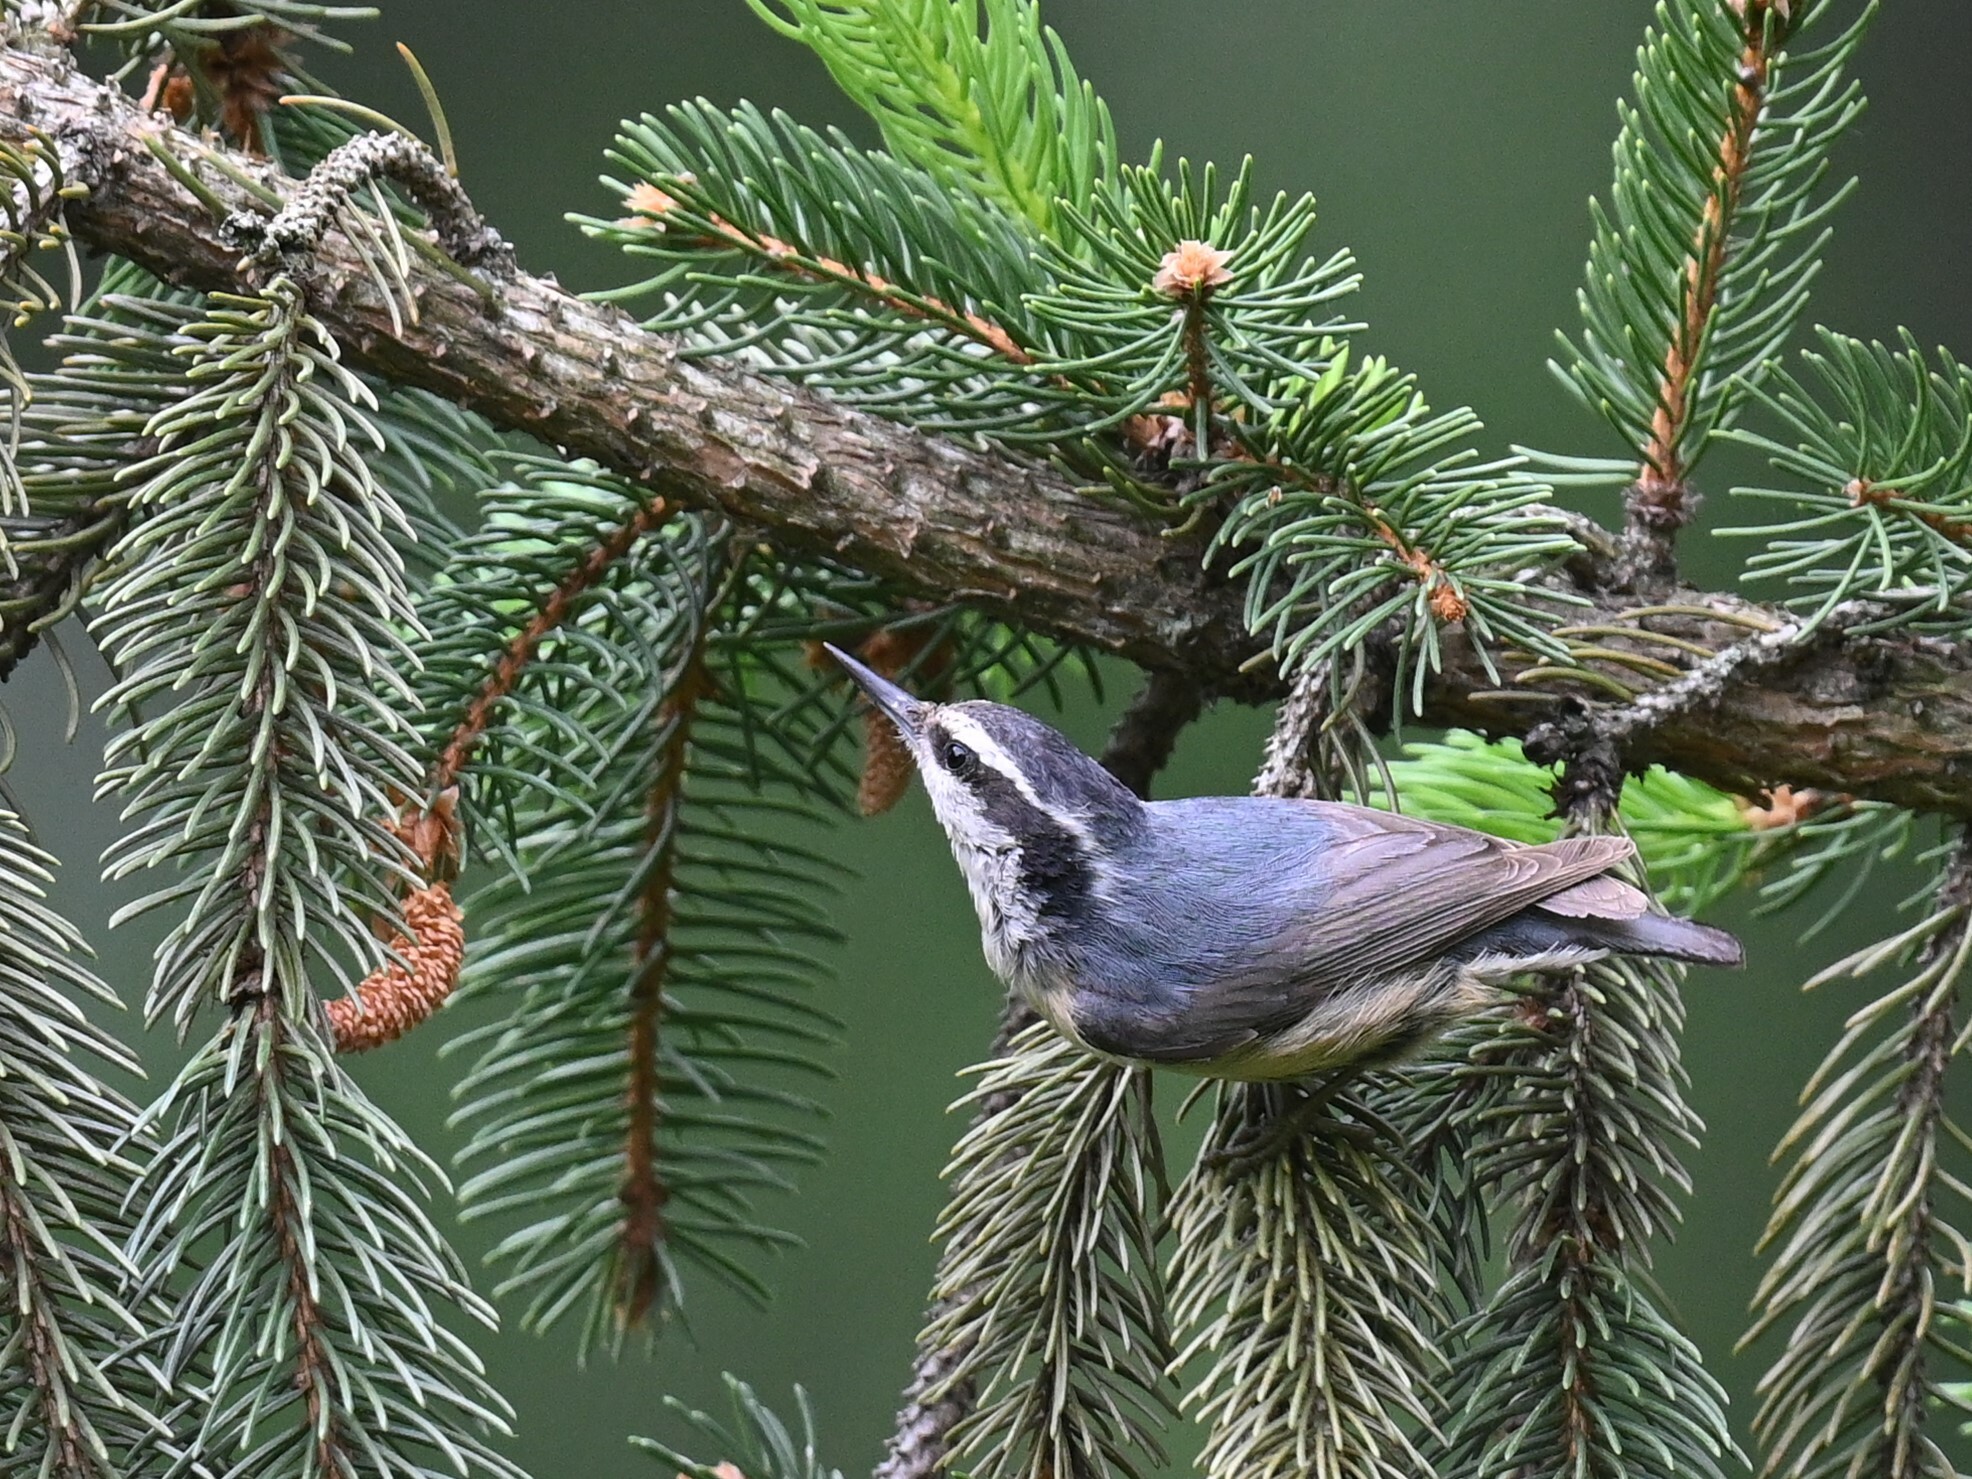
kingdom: Animalia
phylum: Chordata
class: Aves
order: Passeriformes
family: Sittidae
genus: Sitta
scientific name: Sitta canadensis
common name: Red-breasted nuthatch
